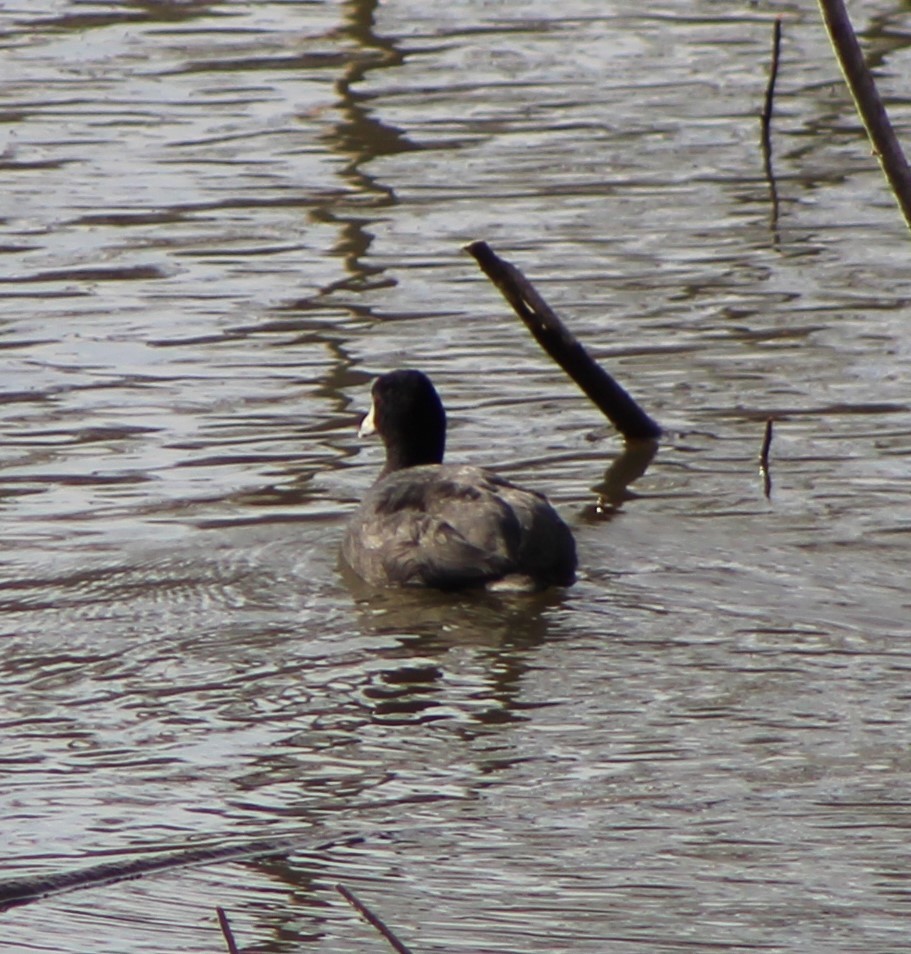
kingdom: Animalia
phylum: Chordata
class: Aves
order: Gruiformes
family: Rallidae
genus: Fulica
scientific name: Fulica americana
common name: American coot
